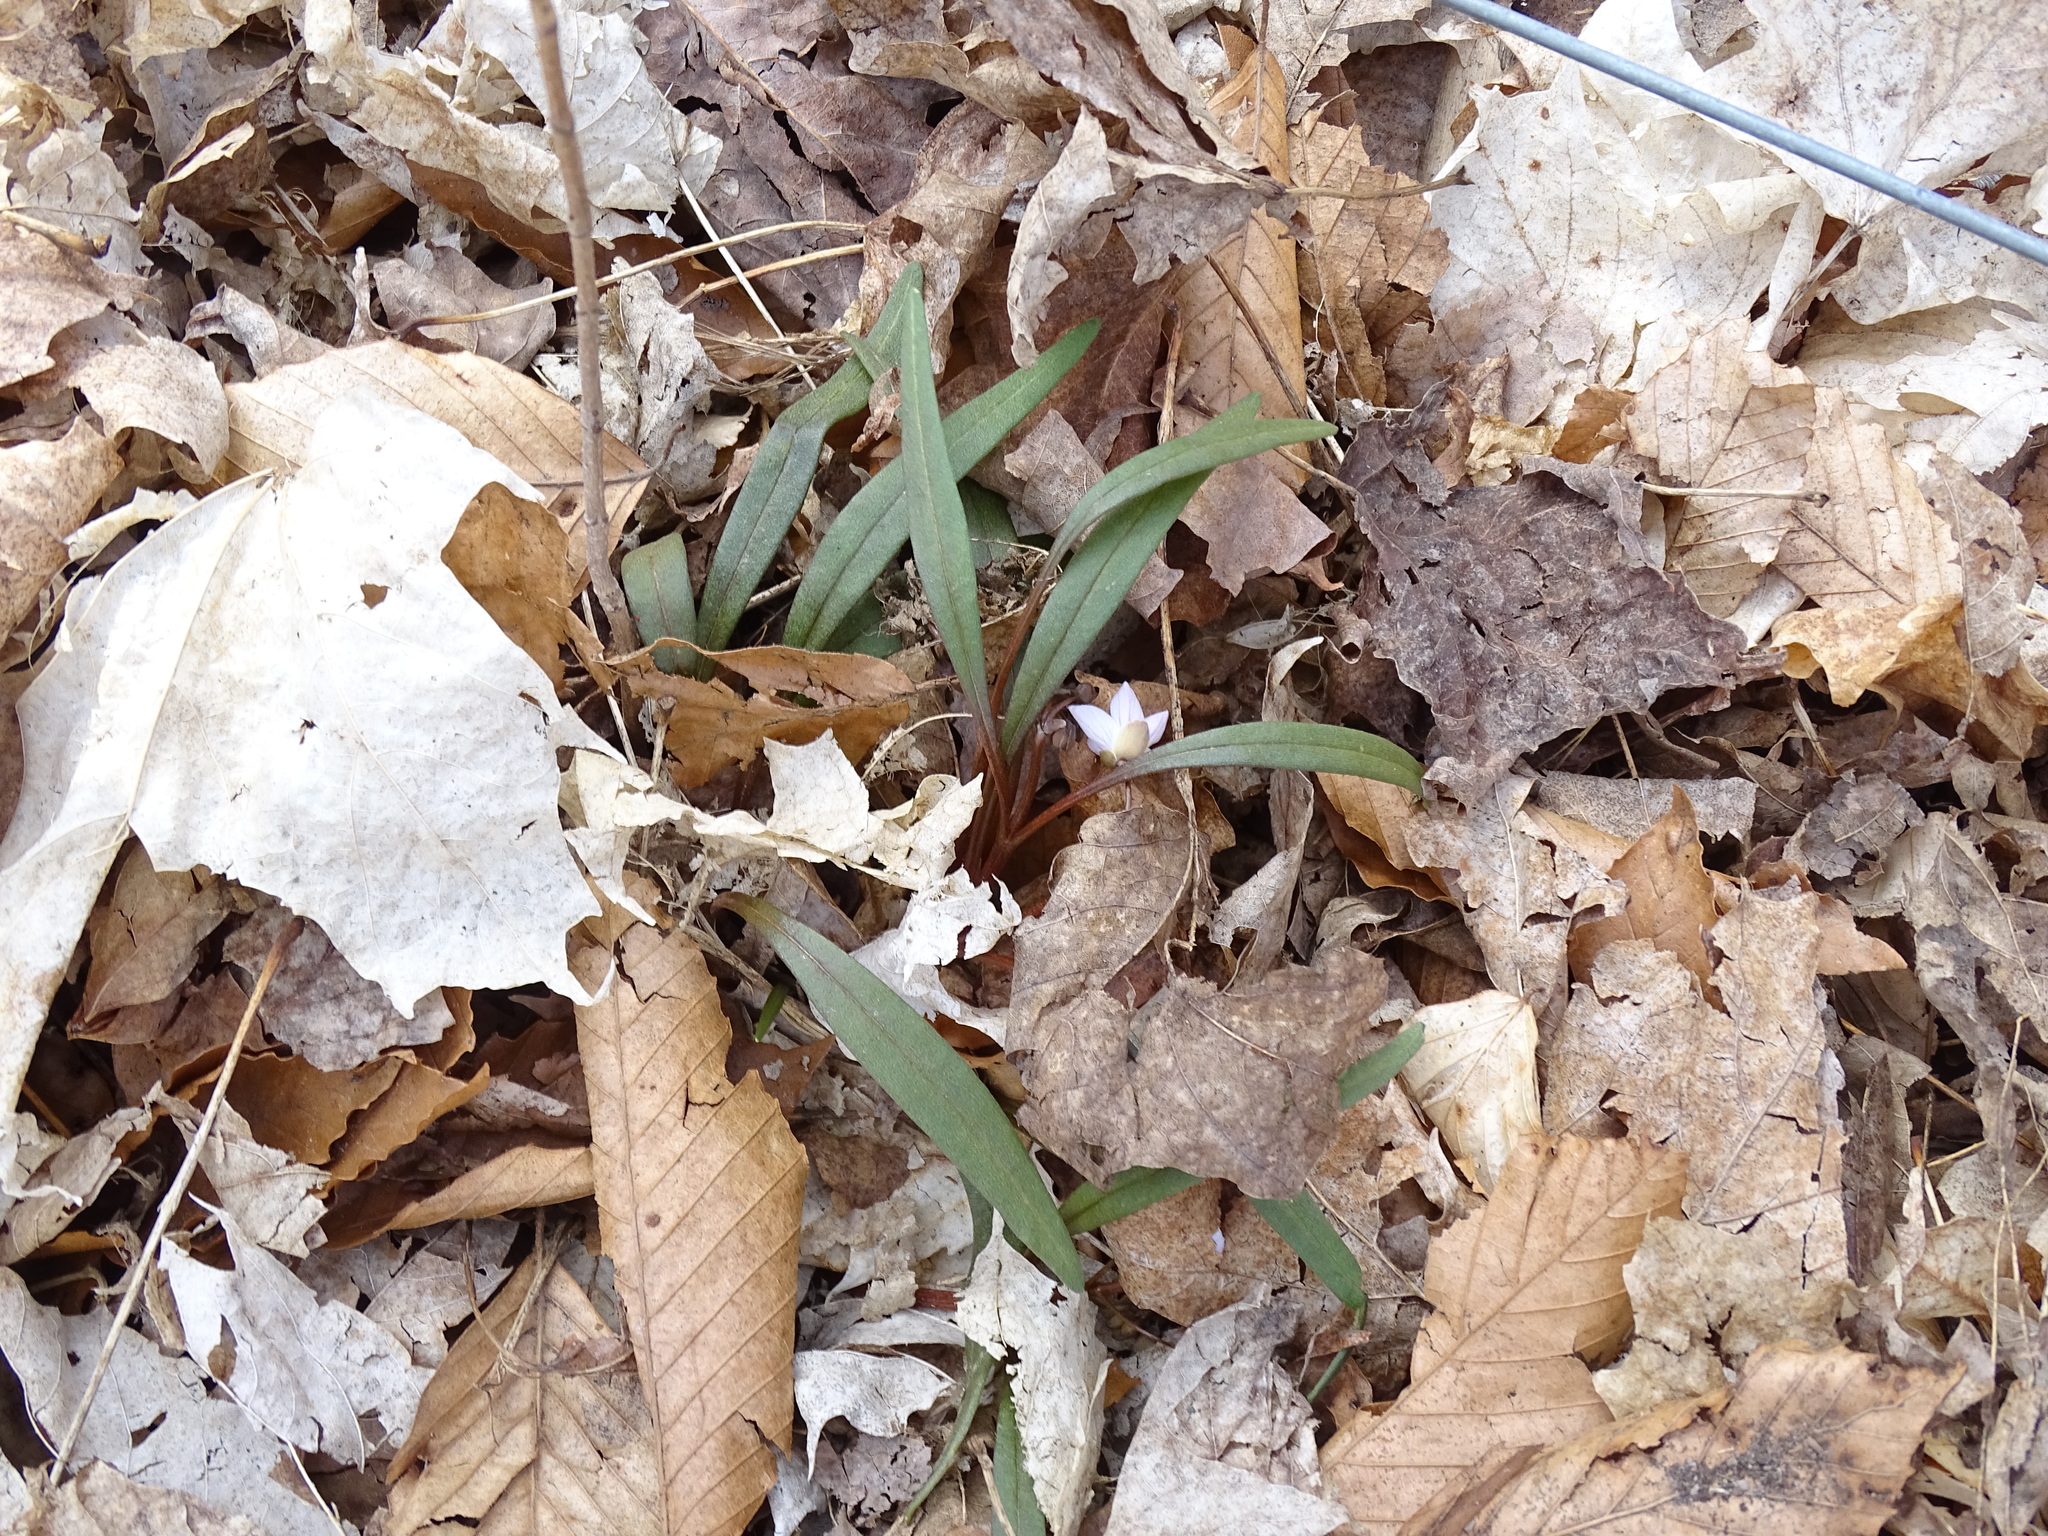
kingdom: Plantae
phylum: Tracheophyta
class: Magnoliopsida
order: Caryophyllales
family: Montiaceae
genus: Claytonia
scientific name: Claytonia virginica
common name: Virginia springbeauty
